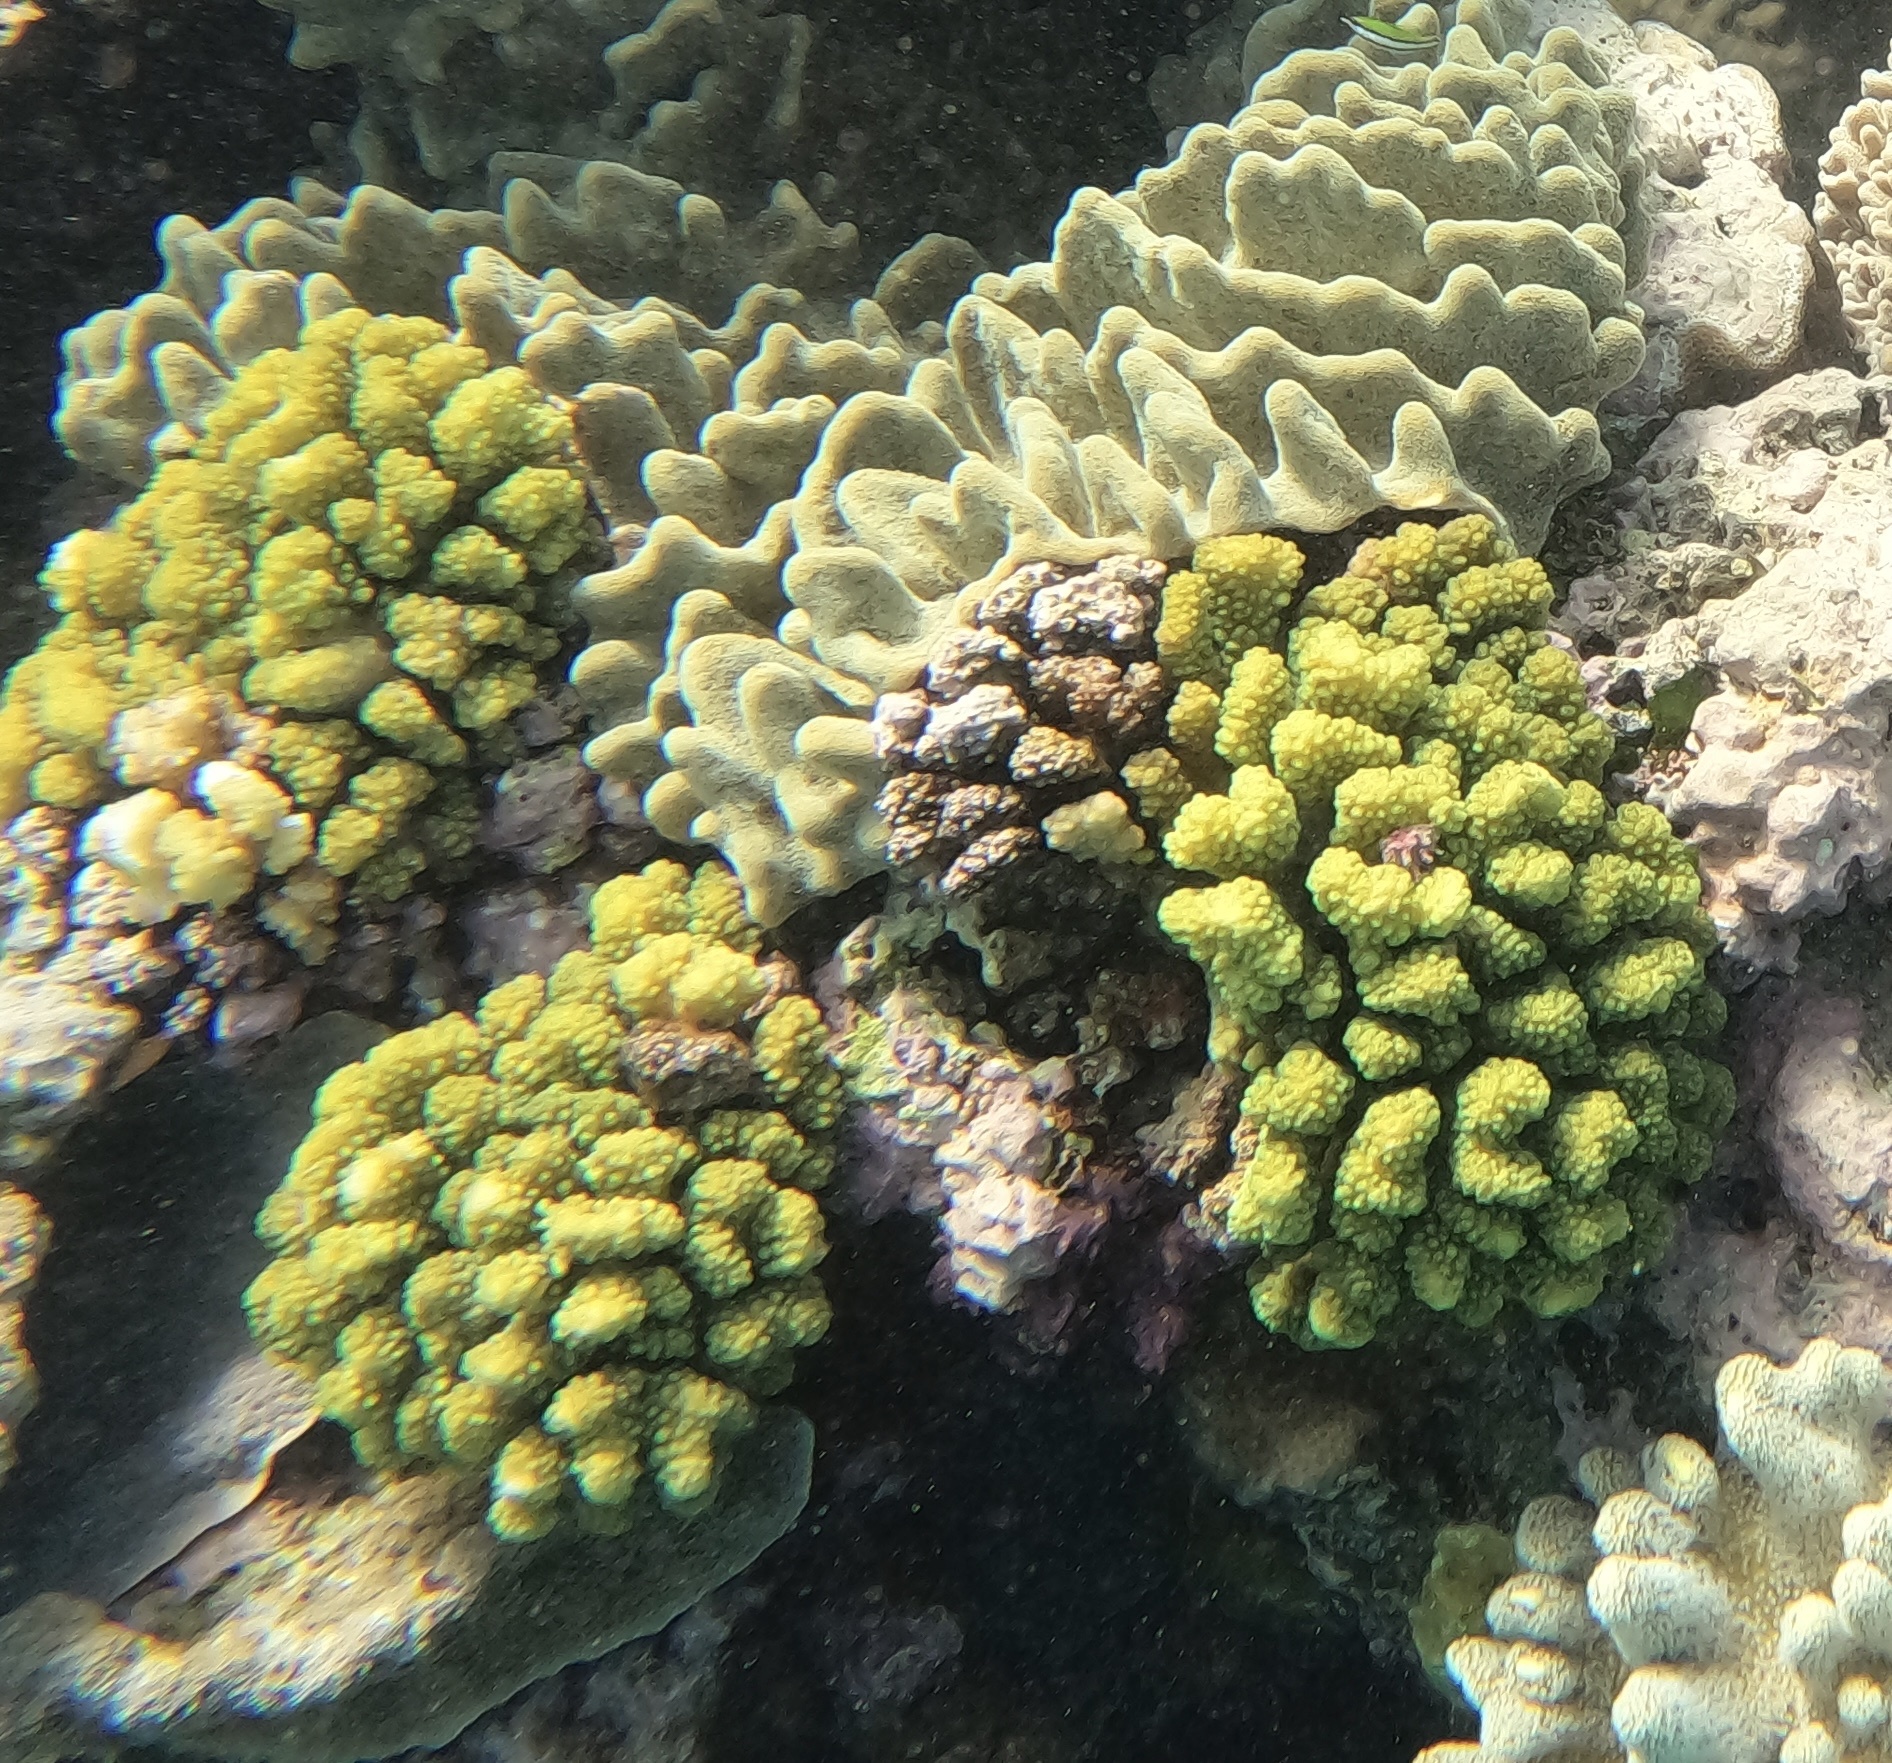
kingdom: Animalia
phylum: Cnidaria
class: Anthozoa
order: Scleractinia
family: Pocilloporidae
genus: Pocillopora
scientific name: Pocillopora verrucosa
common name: Cauliflower coral
